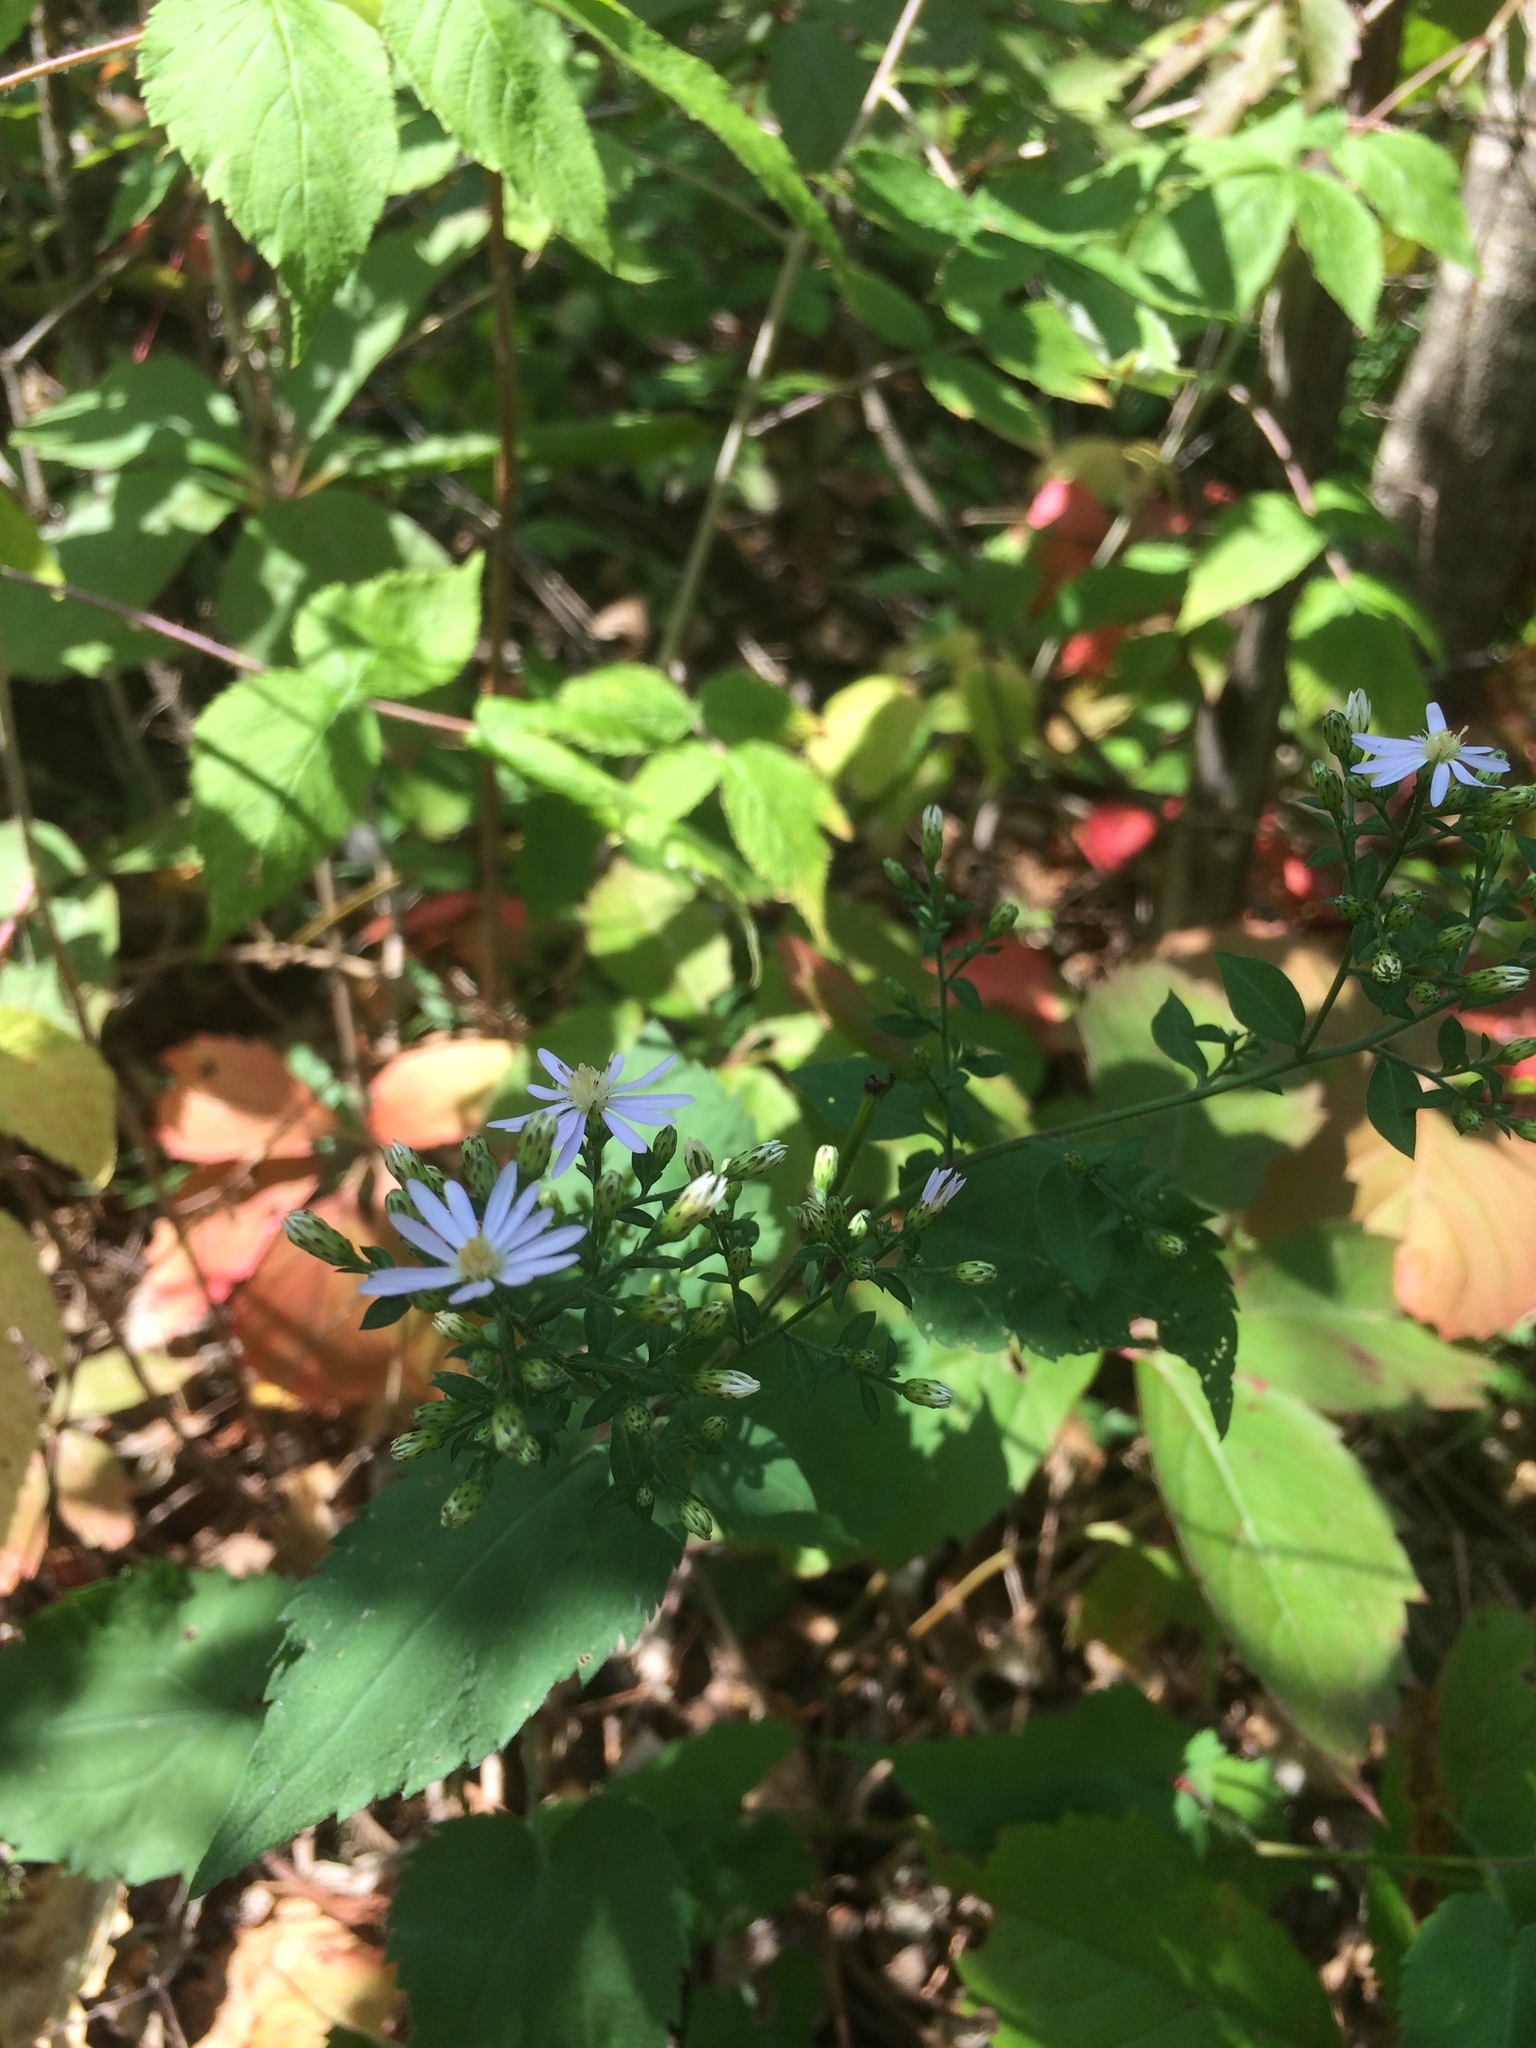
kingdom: Plantae
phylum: Tracheophyta
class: Magnoliopsida
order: Asterales
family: Asteraceae
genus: Symphyotrichum
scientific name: Symphyotrichum cordifolium
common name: Beeweed
